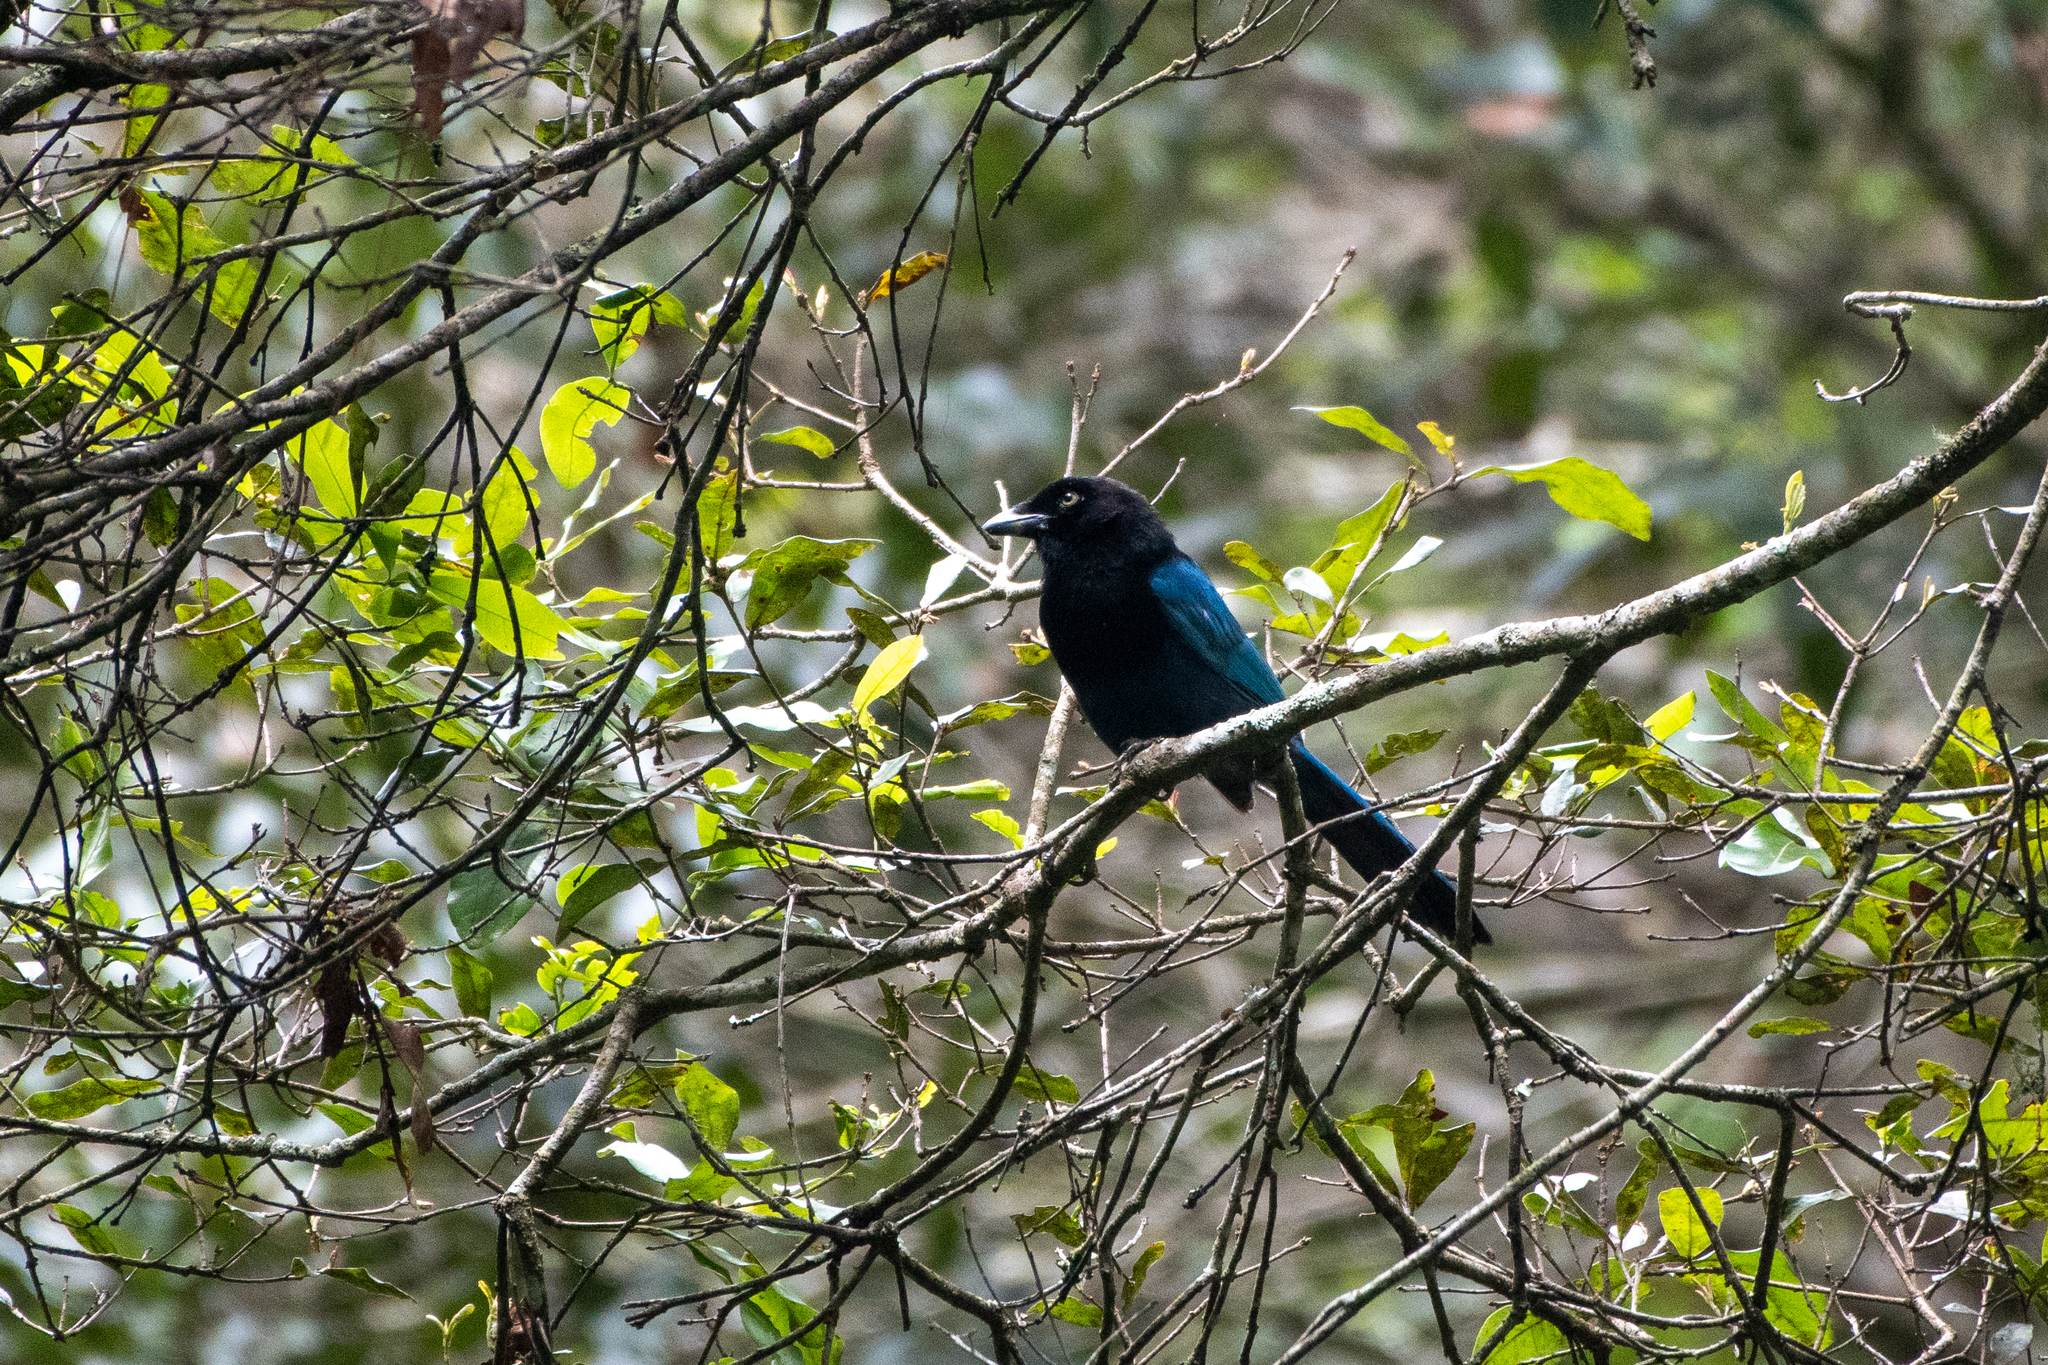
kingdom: Animalia
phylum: Chordata
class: Aves
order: Passeriformes
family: Corvidae
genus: Cyanocorax
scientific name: Cyanocorax melanocyaneus
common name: Bushy-crested jay
